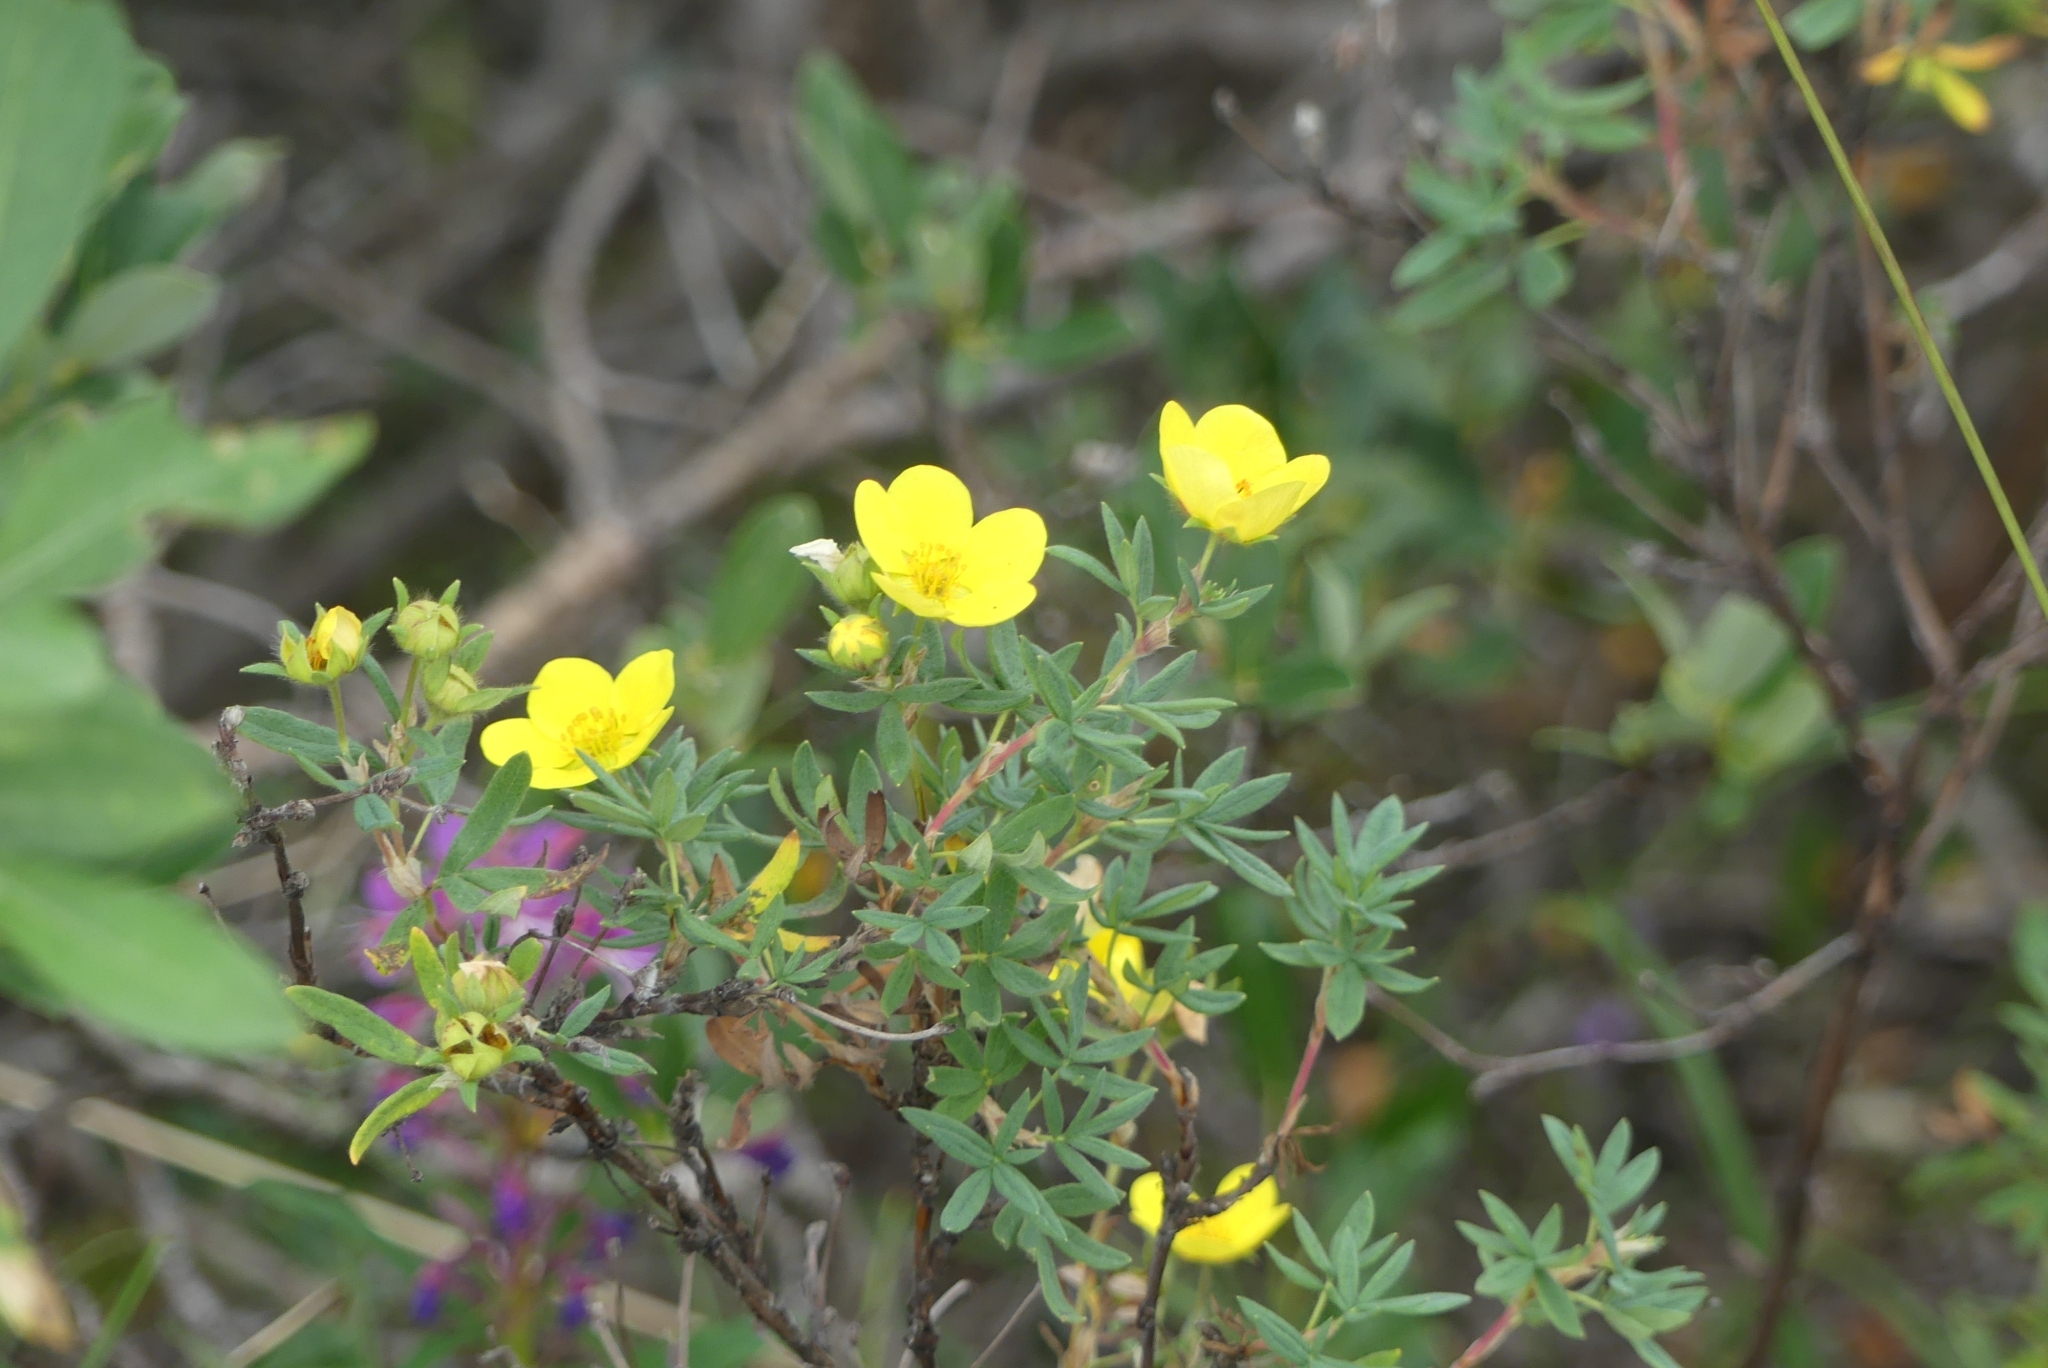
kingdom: Plantae
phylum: Tracheophyta
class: Magnoliopsida
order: Rosales
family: Rosaceae
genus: Dasiphora
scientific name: Dasiphora fruticosa
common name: Shrubby cinquefoil
